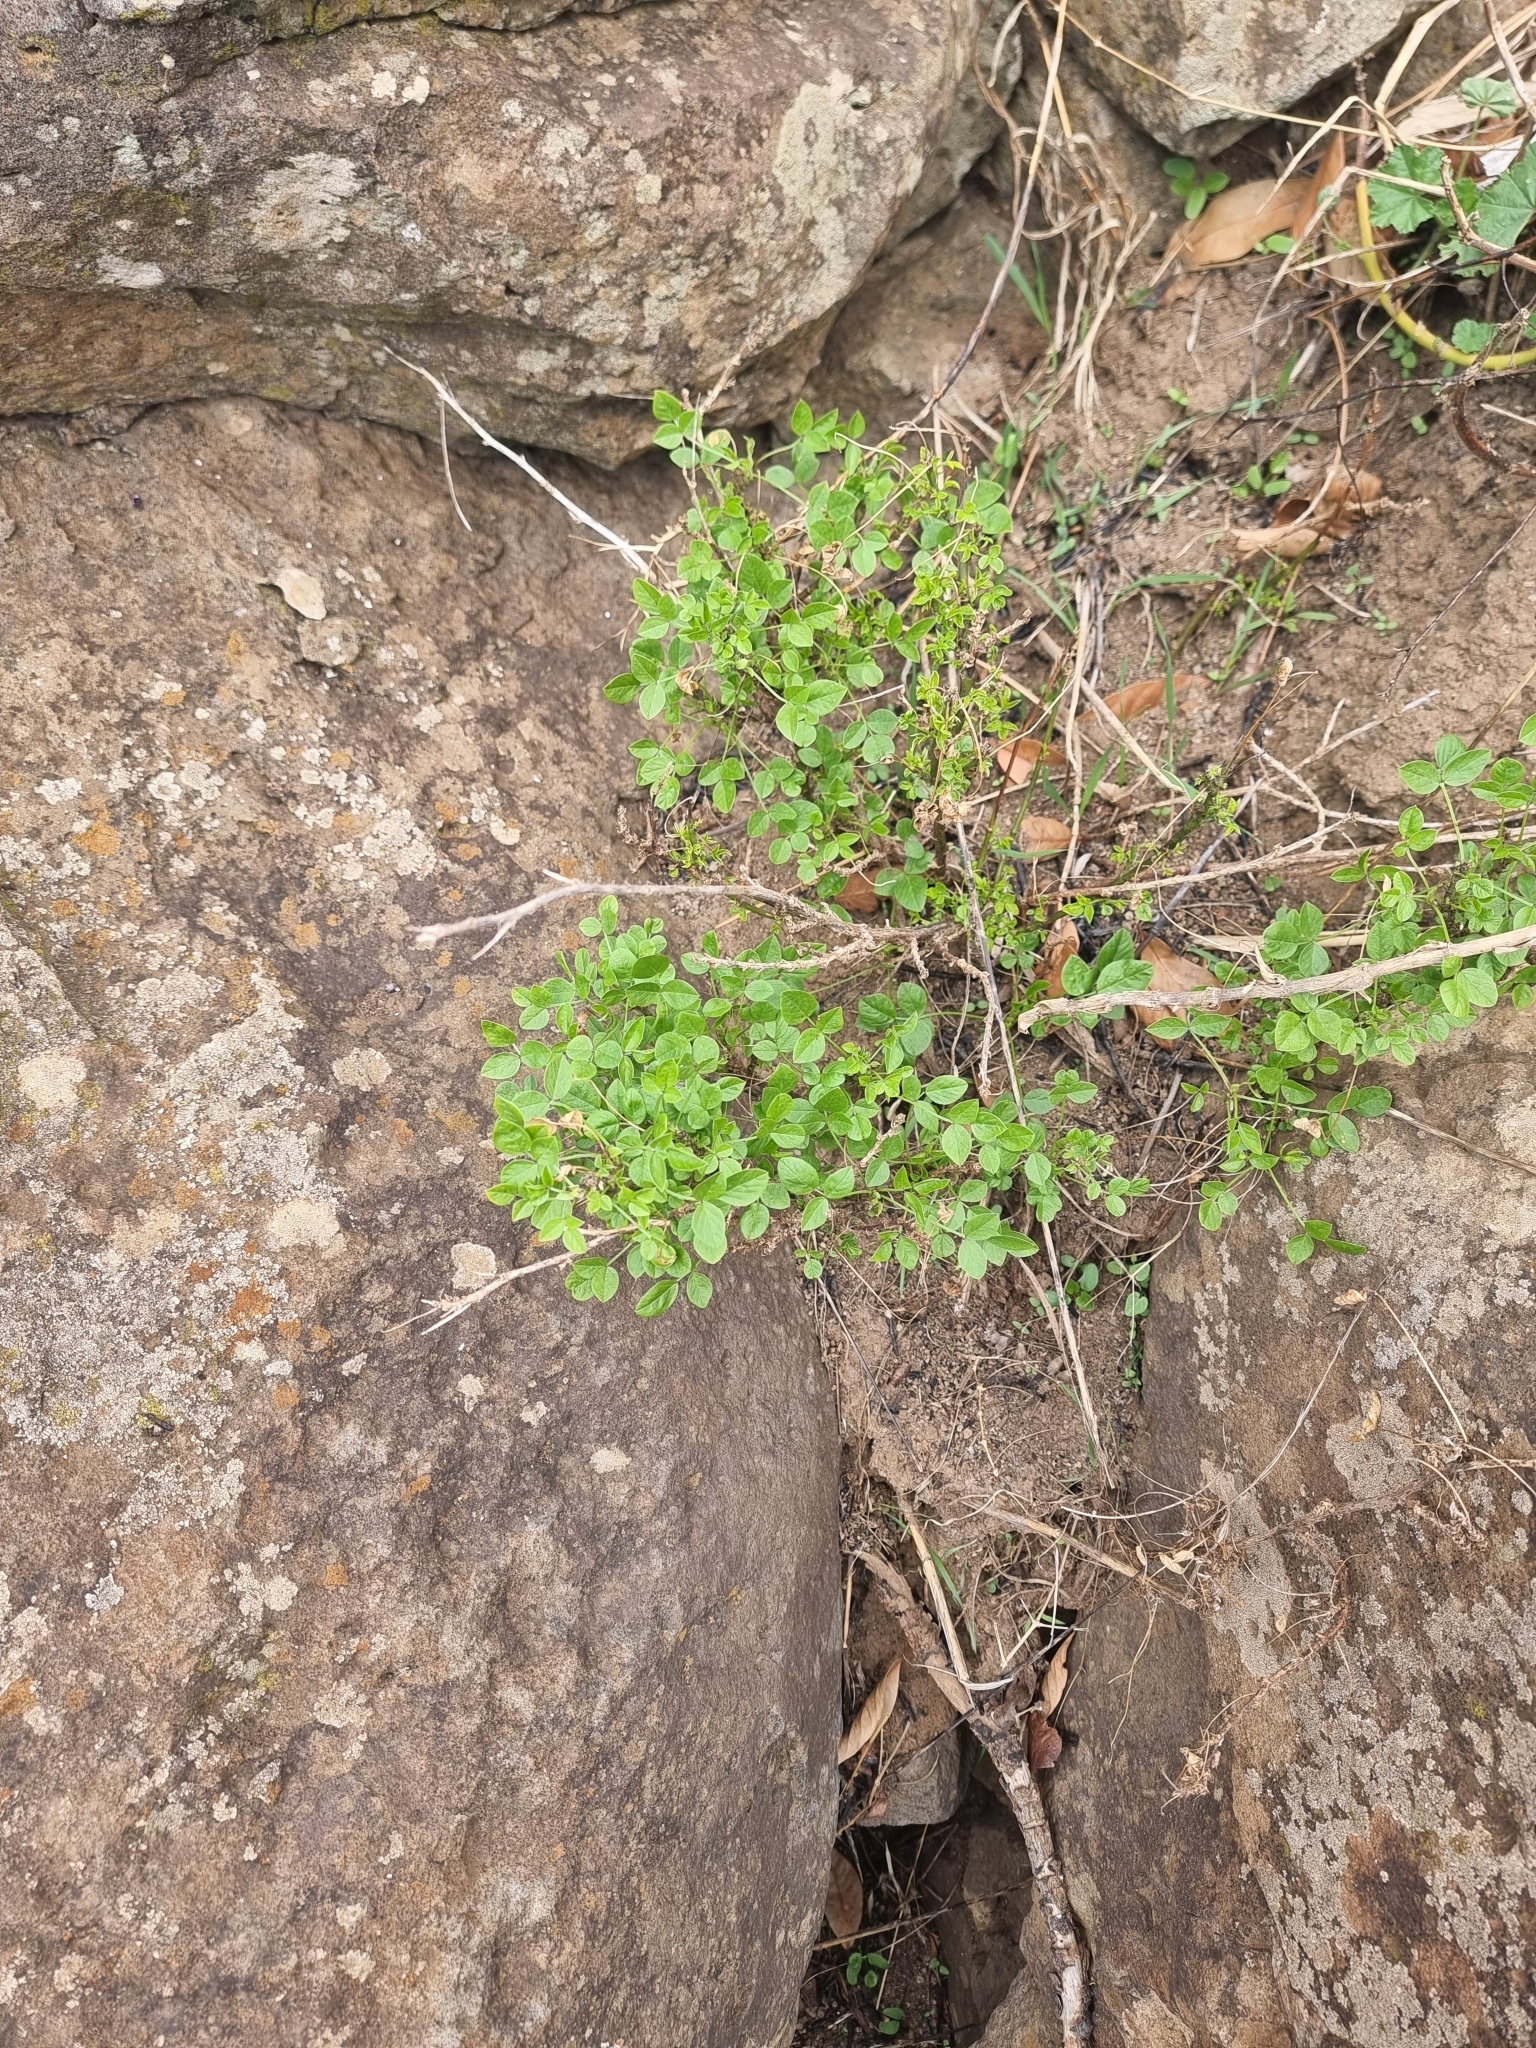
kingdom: Plantae
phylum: Tracheophyta
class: Magnoliopsida
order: Fabales
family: Fabaceae
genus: Bituminaria
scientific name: Bituminaria bituminosa
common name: Arabian pea
